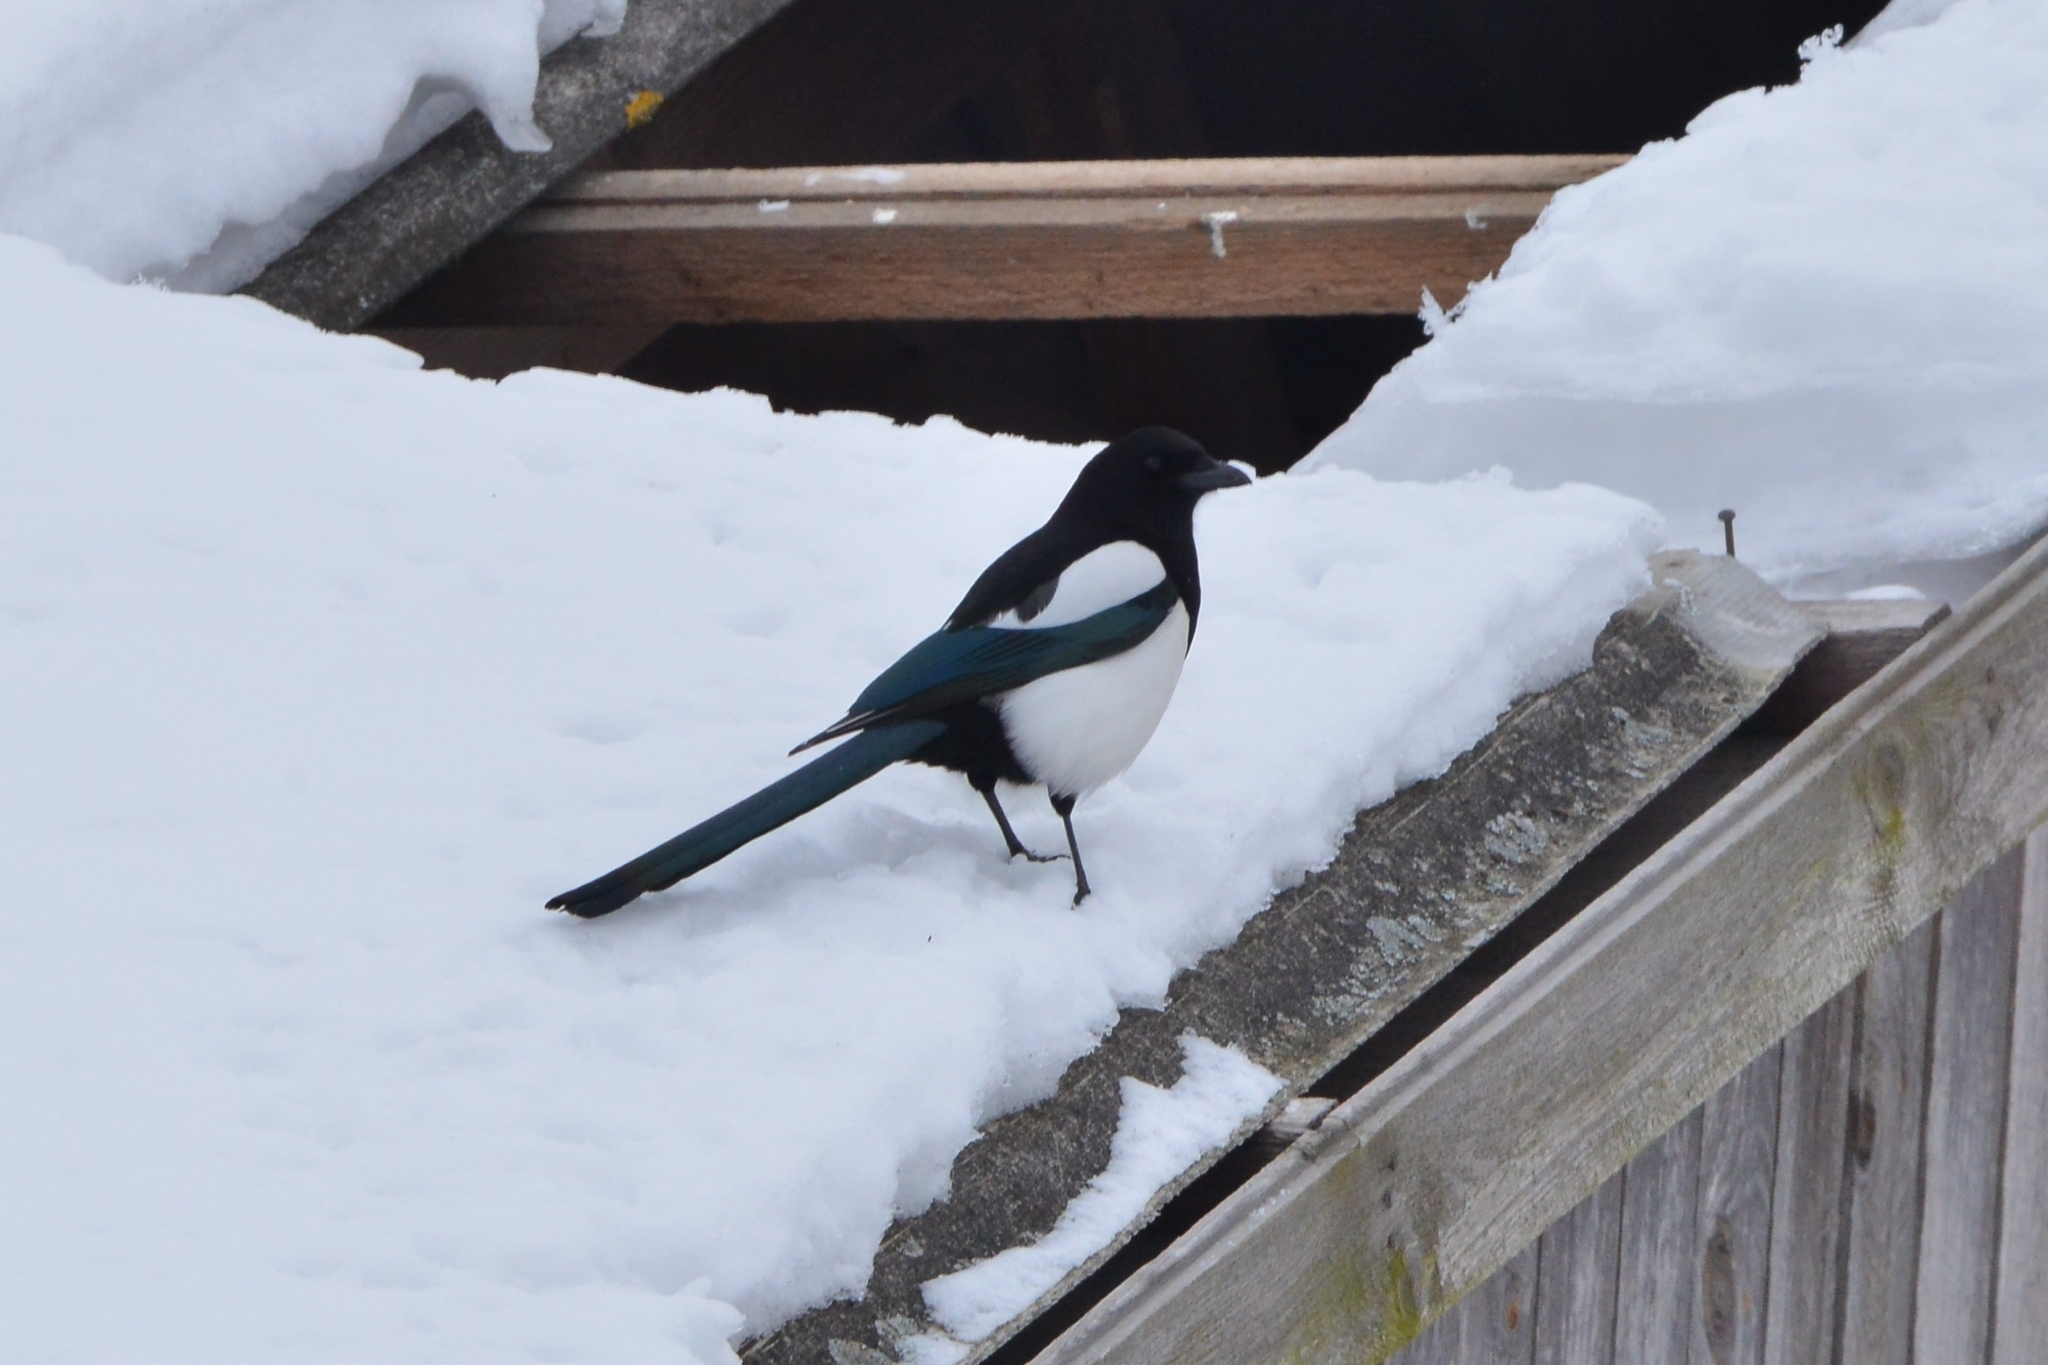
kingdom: Animalia
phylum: Chordata
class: Aves
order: Passeriformes
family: Corvidae
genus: Pica
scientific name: Pica pica
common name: Eurasian magpie
